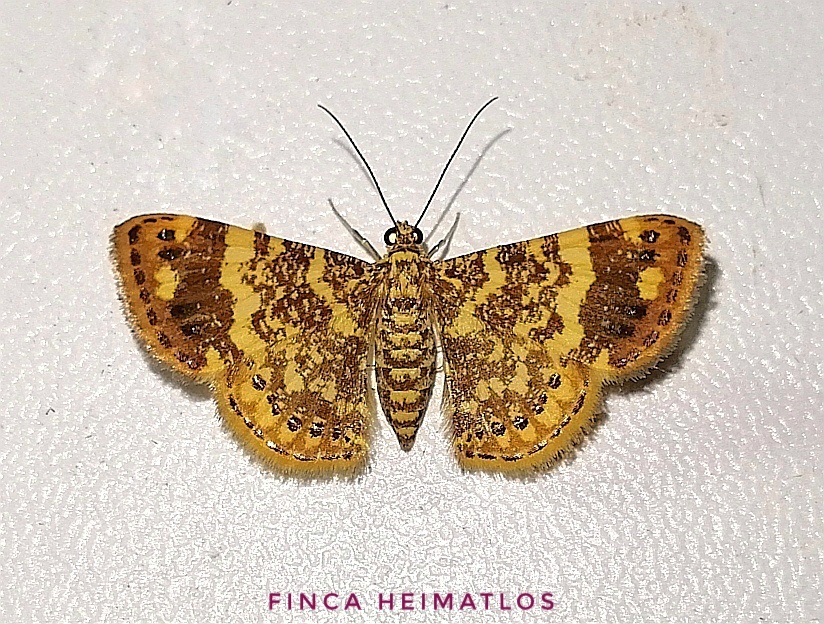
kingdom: Animalia
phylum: Arthropoda
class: Insecta
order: Lepidoptera
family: Geometridae
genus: Aplogompha
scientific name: Aplogompha lafayi
